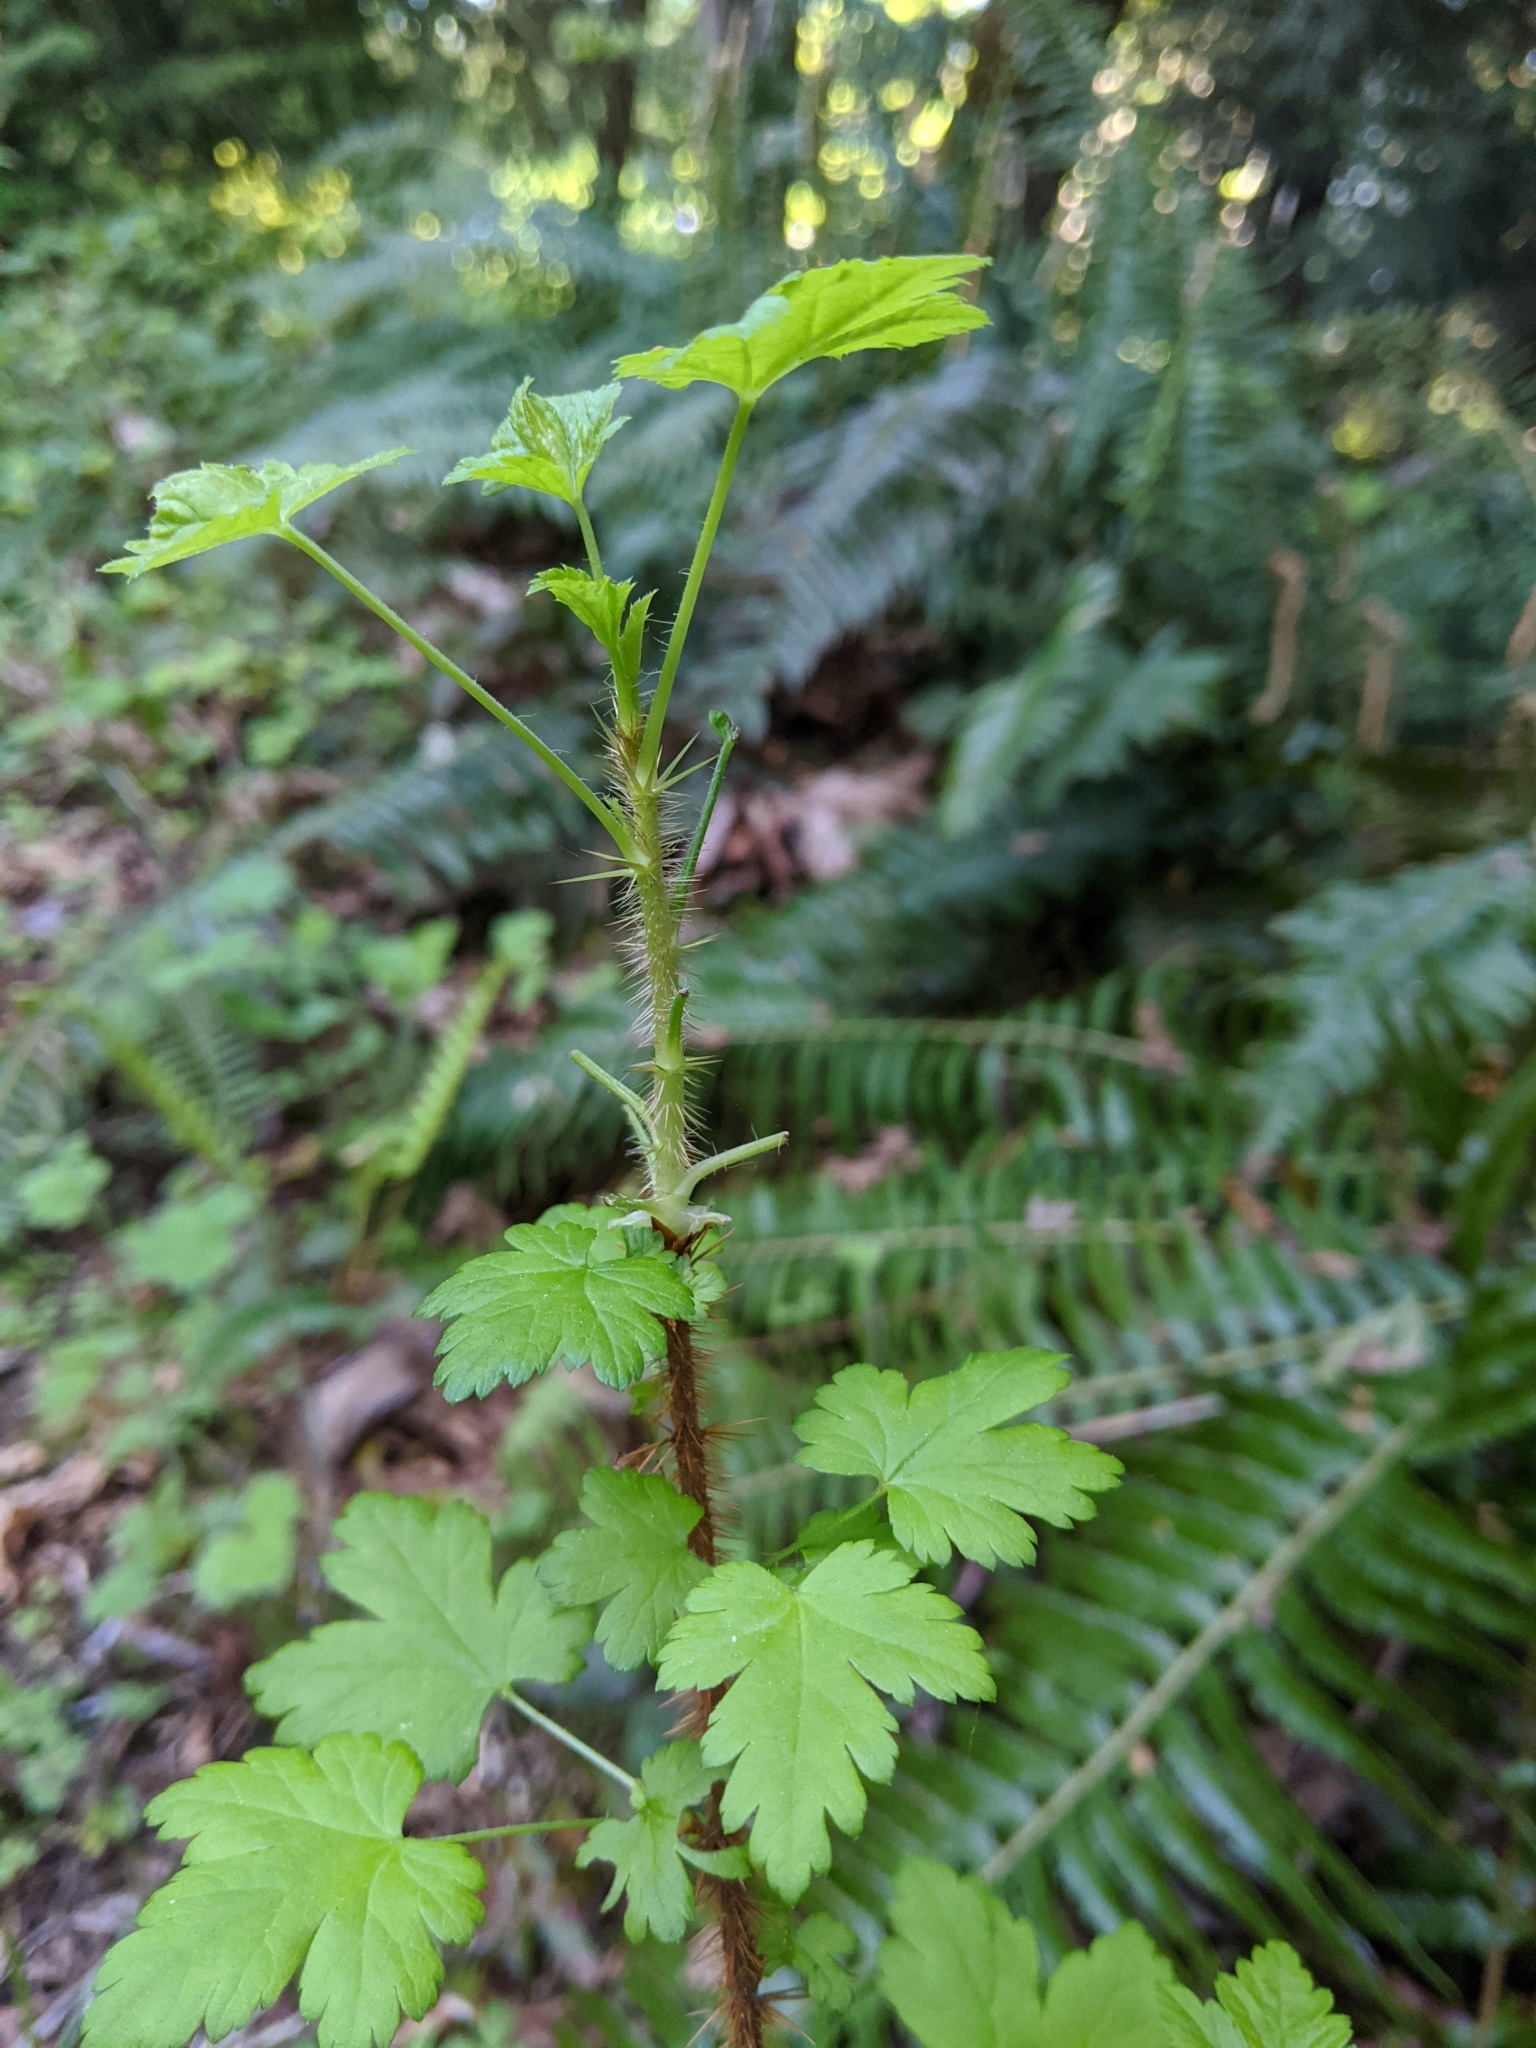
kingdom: Plantae
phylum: Tracheophyta
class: Magnoliopsida
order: Saxifragales
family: Grossulariaceae
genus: Ribes
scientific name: Ribes lacustre
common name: Black gooseberry
